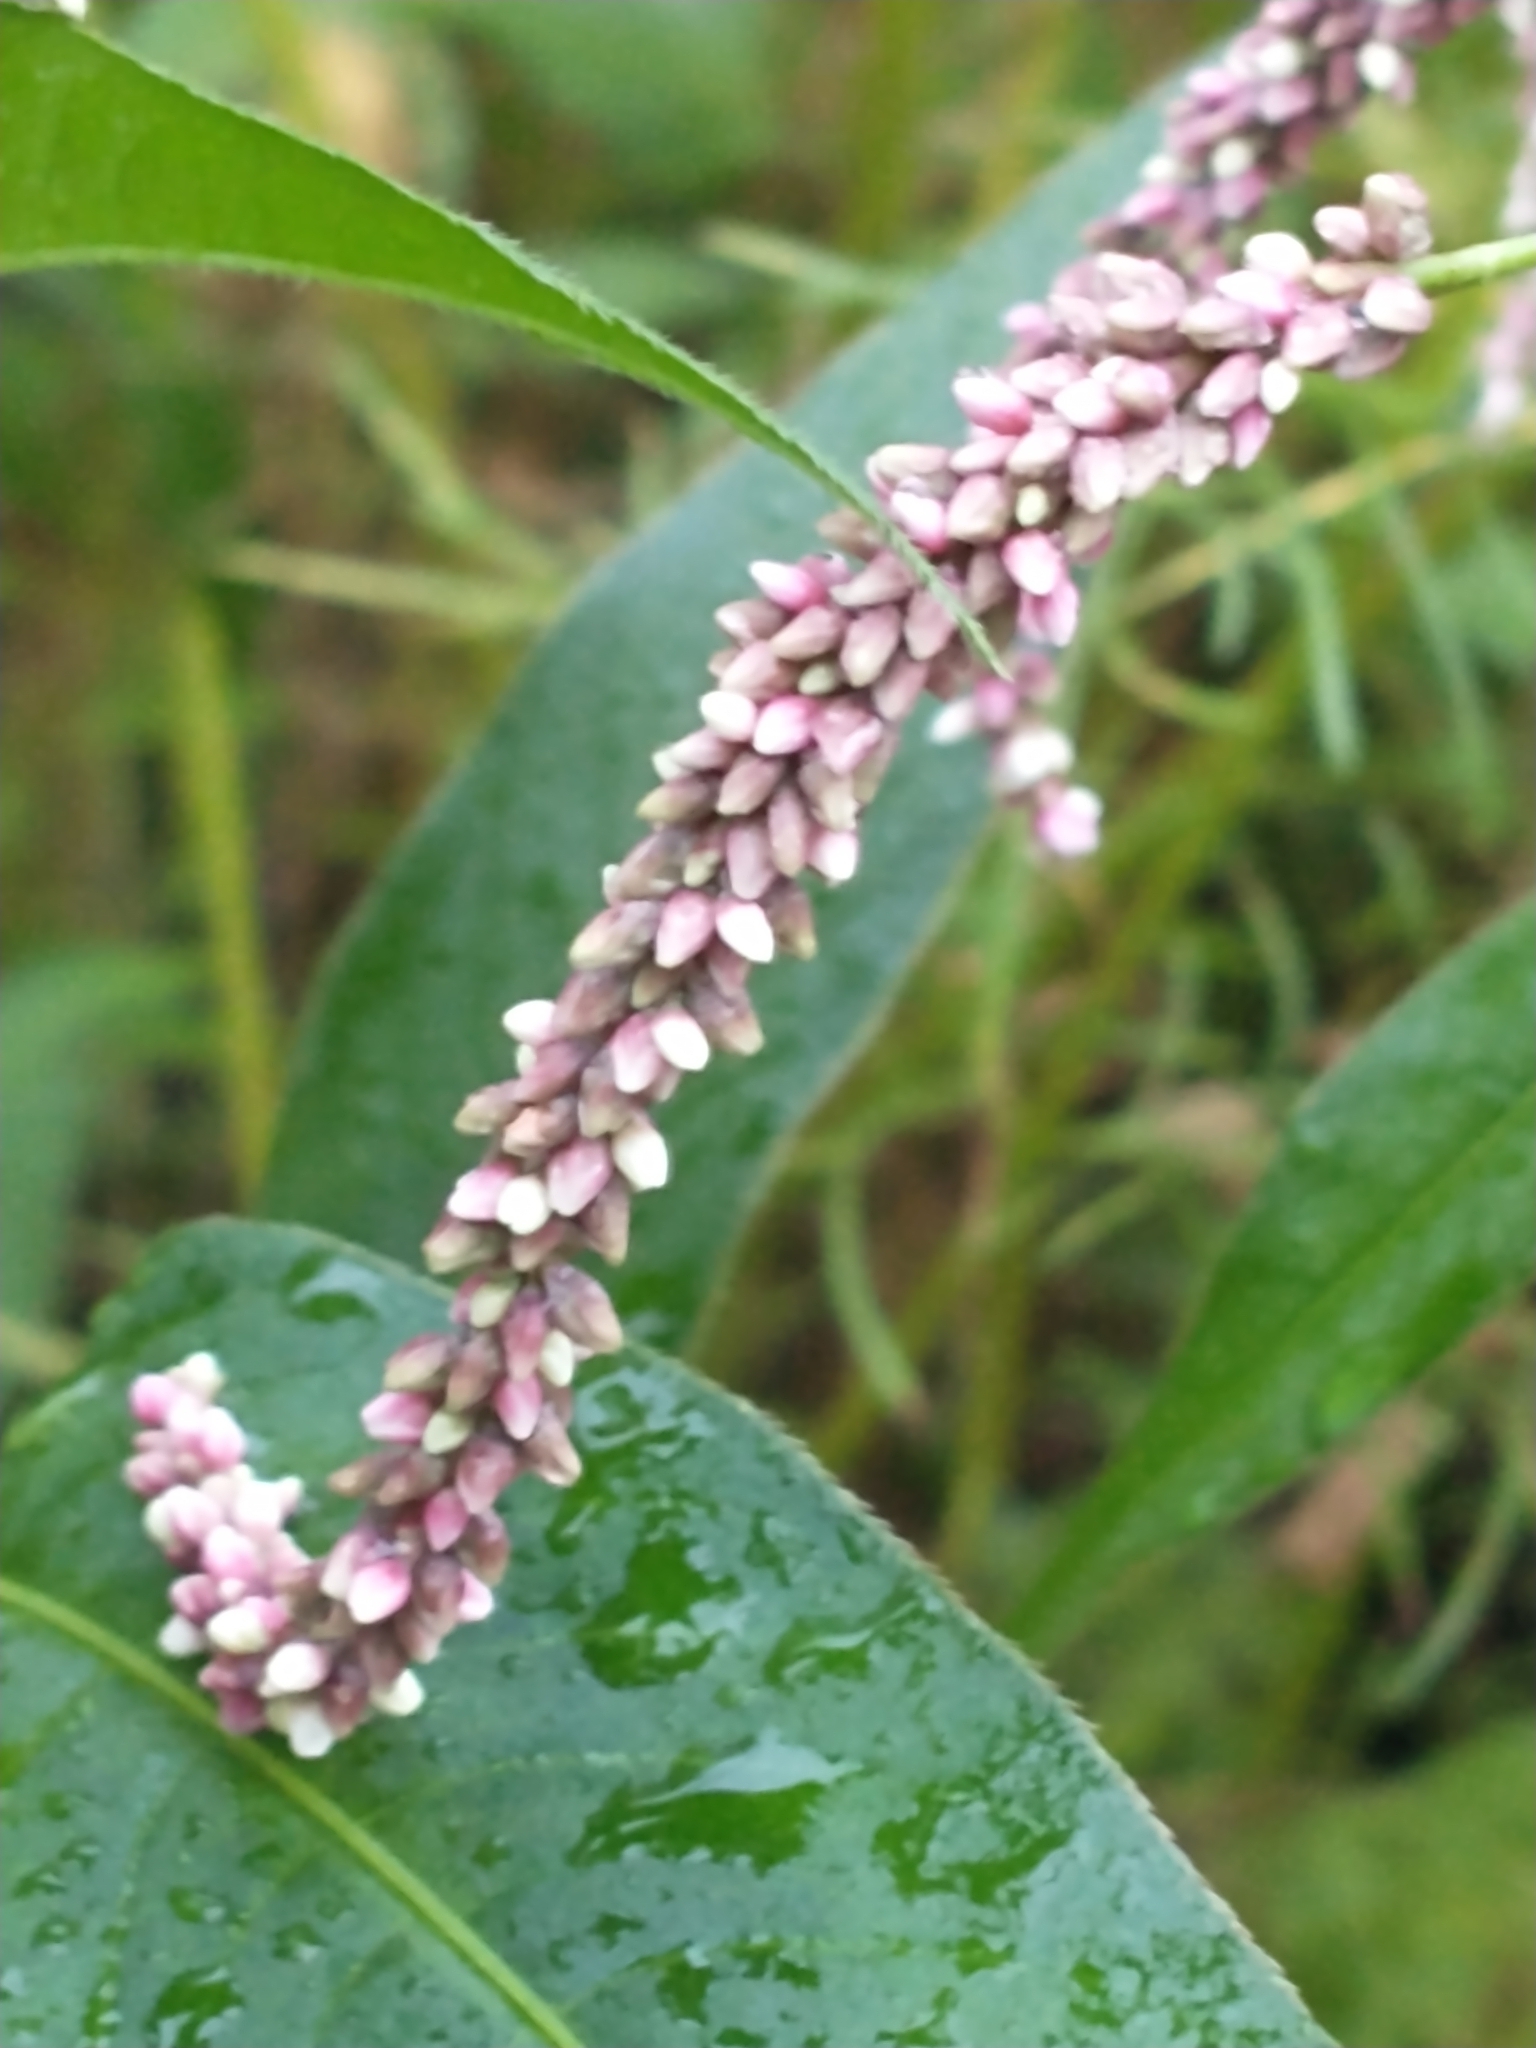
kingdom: Plantae
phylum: Tracheophyta
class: Magnoliopsida
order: Caryophyllales
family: Polygonaceae
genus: Persicaria
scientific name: Persicaria extremiorientalis
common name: Far-eastern smartweed
